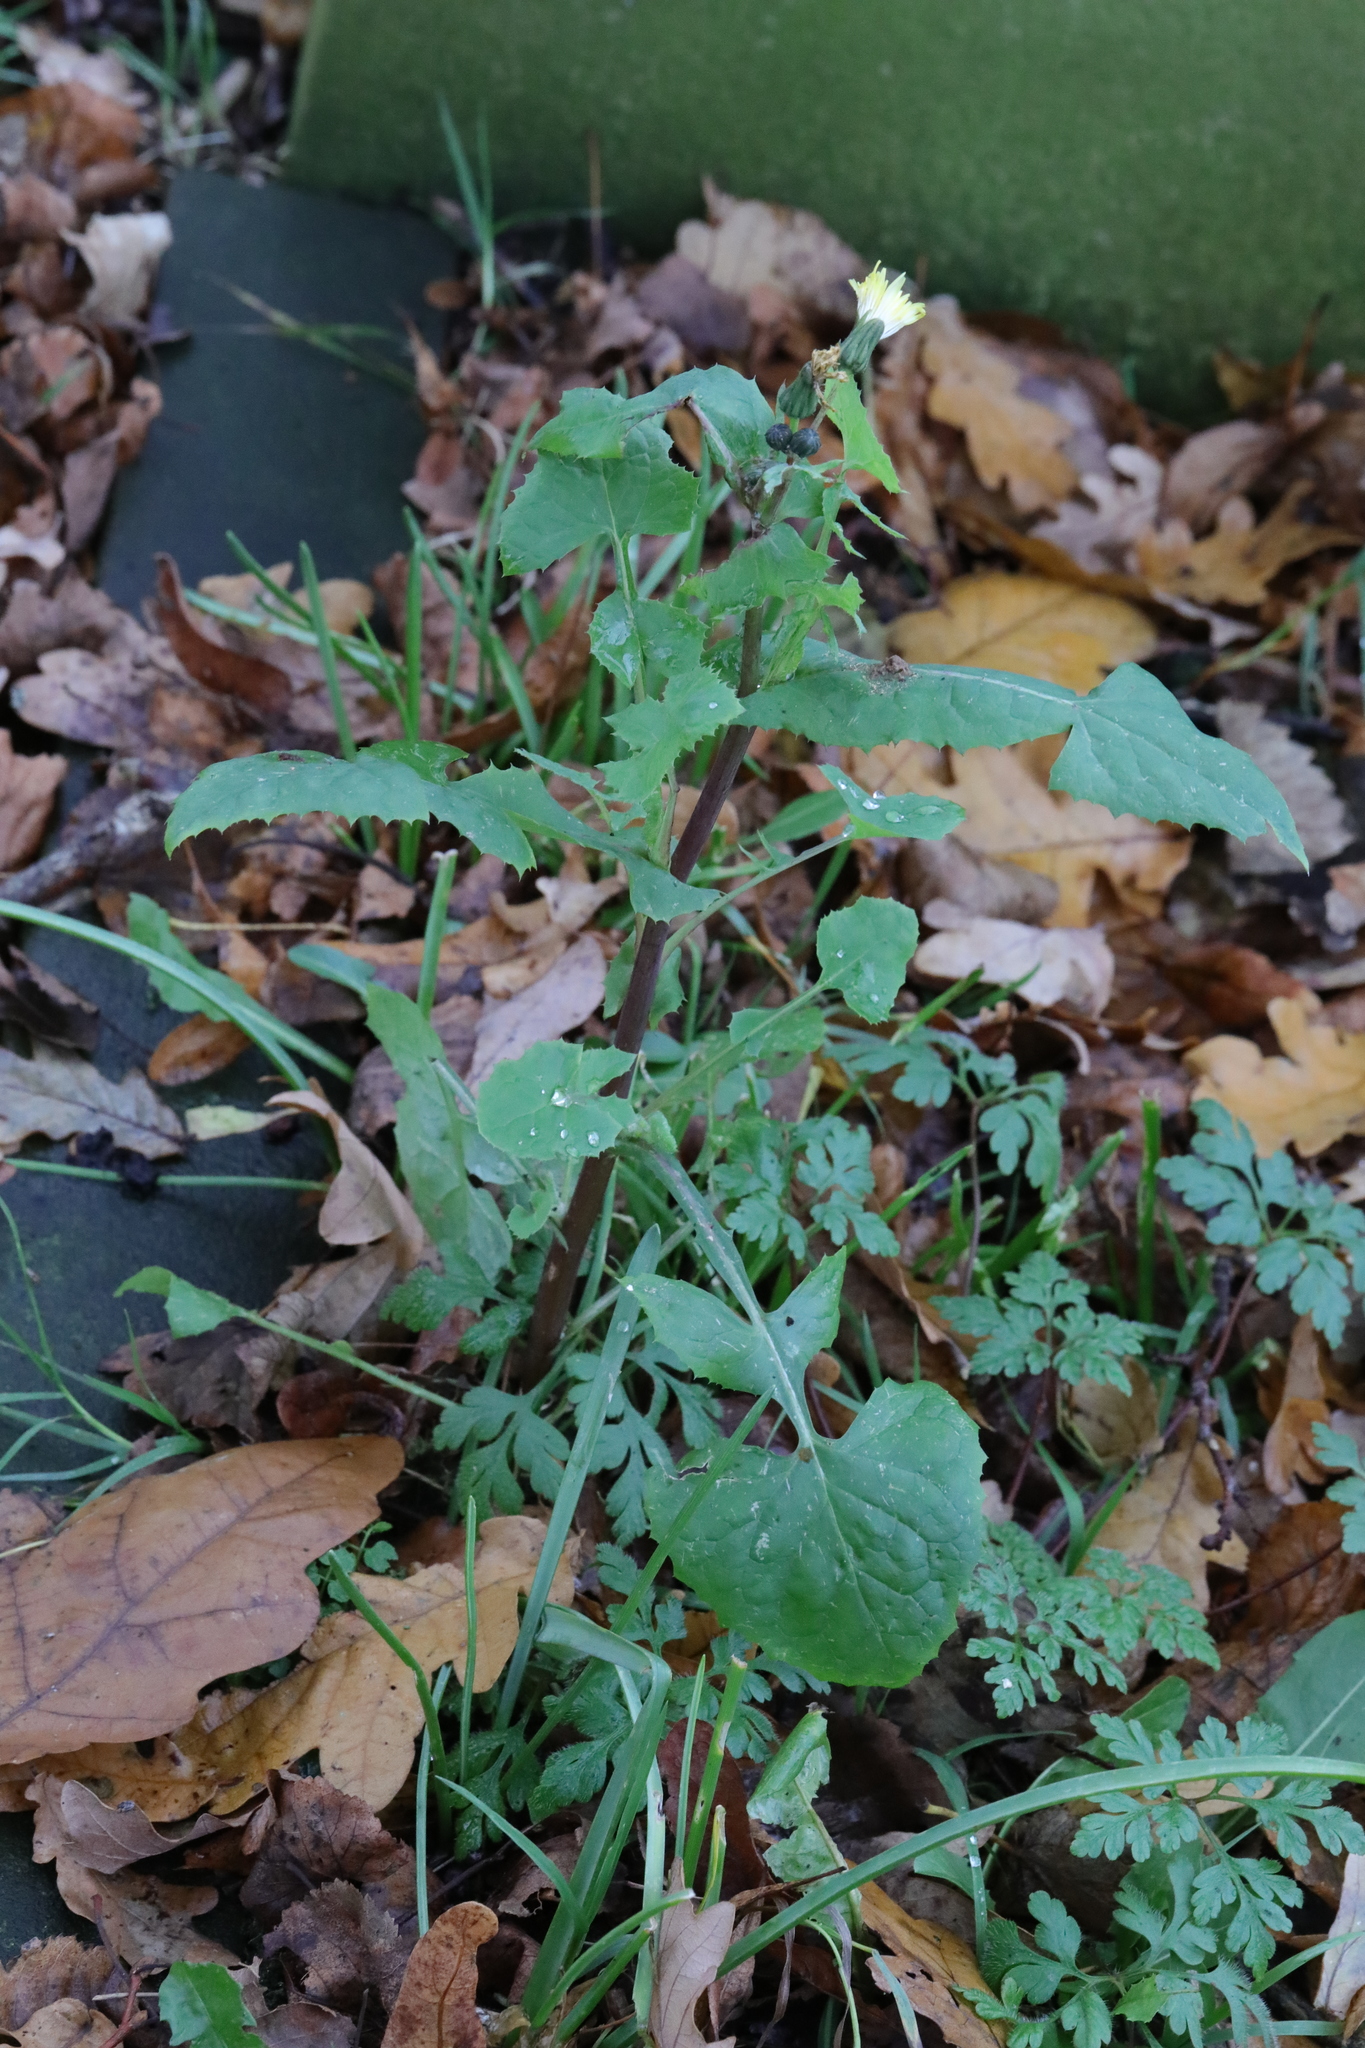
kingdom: Plantae
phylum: Tracheophyta
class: Magnoliopsida
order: Asterales
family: Asteraceae
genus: Sonchus
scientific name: Sonchus oleraceus
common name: Common sowthistle
